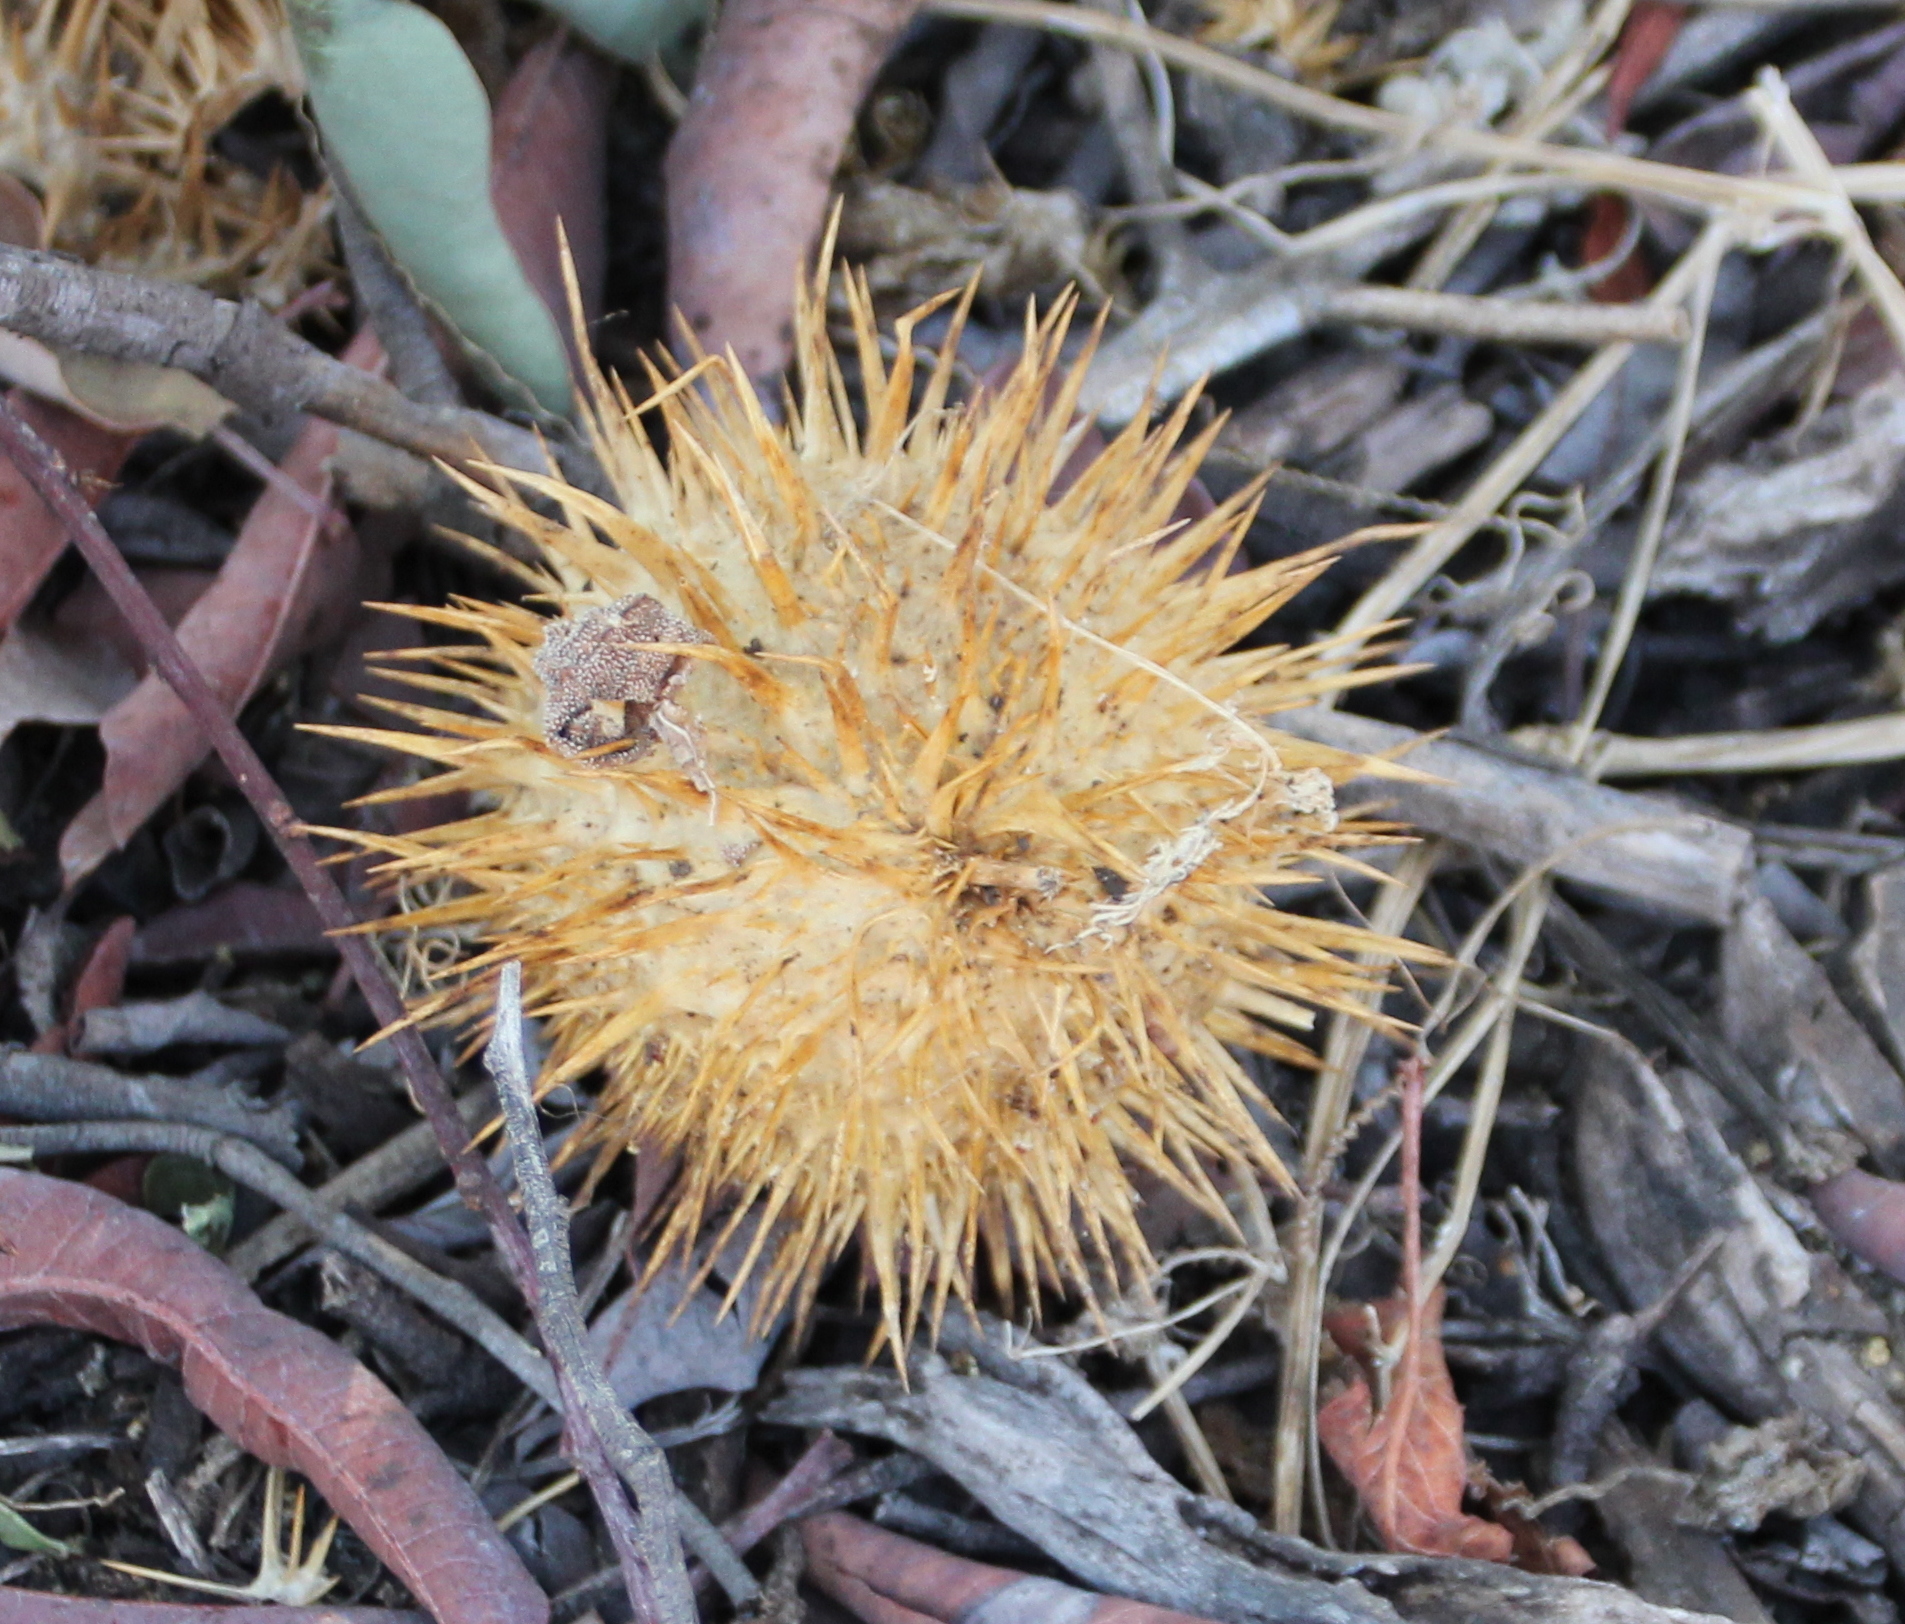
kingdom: Plantae
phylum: Tracheophyta
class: Magnoliopsida
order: Cucurbitales
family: Cucurbitaceae
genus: Marah
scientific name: Marah macrocarpa
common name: Cucamonga manroot
